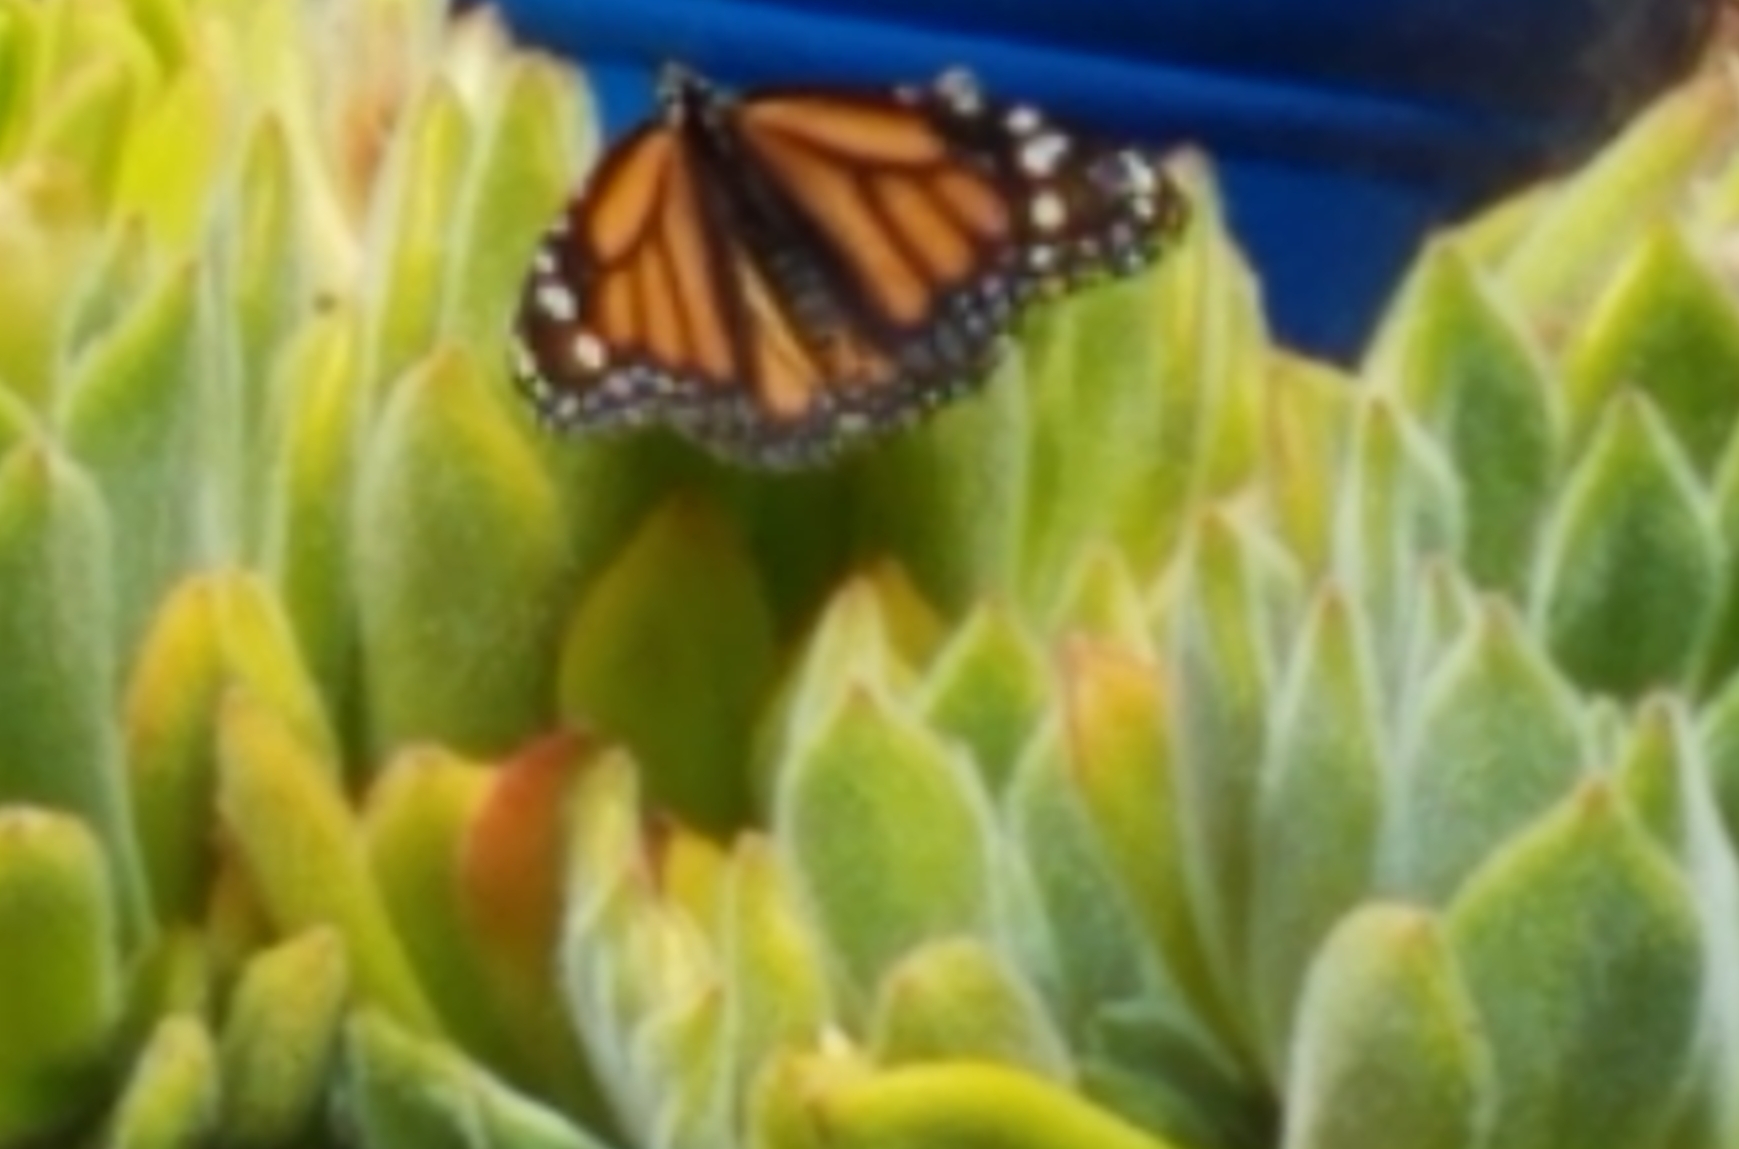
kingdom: Animalia
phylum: Arthropoda
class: Insecta
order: Lepidoptera
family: Nymphalidae
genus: Danaus
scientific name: Danaus plexippus
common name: Monarch
